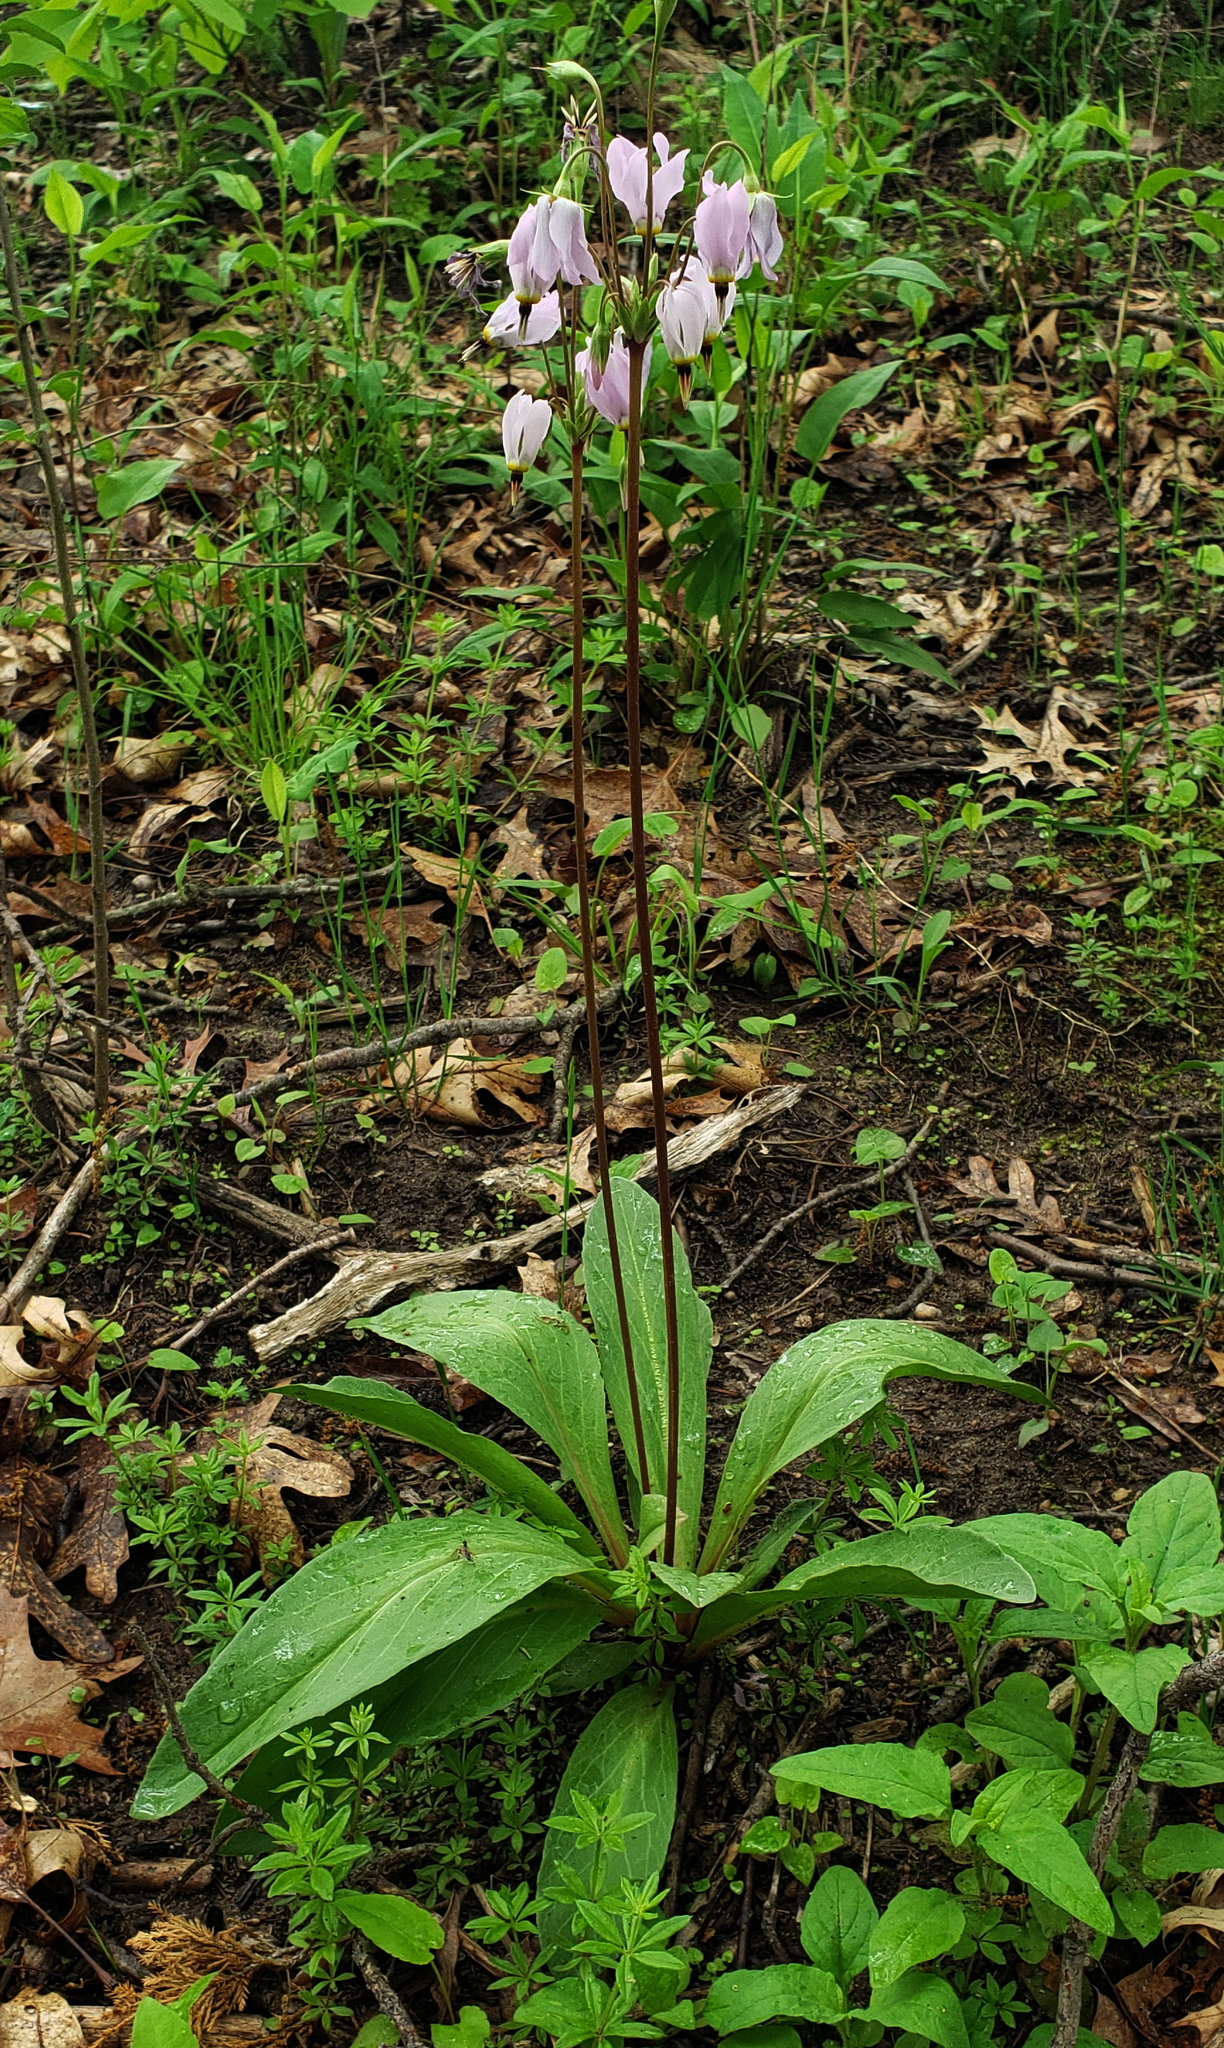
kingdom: Plantae
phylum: Tracheophyta
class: Magnoliopsida
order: Ericales
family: Primulaceae
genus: Dodecatheon
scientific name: Dodecatheon meadia
